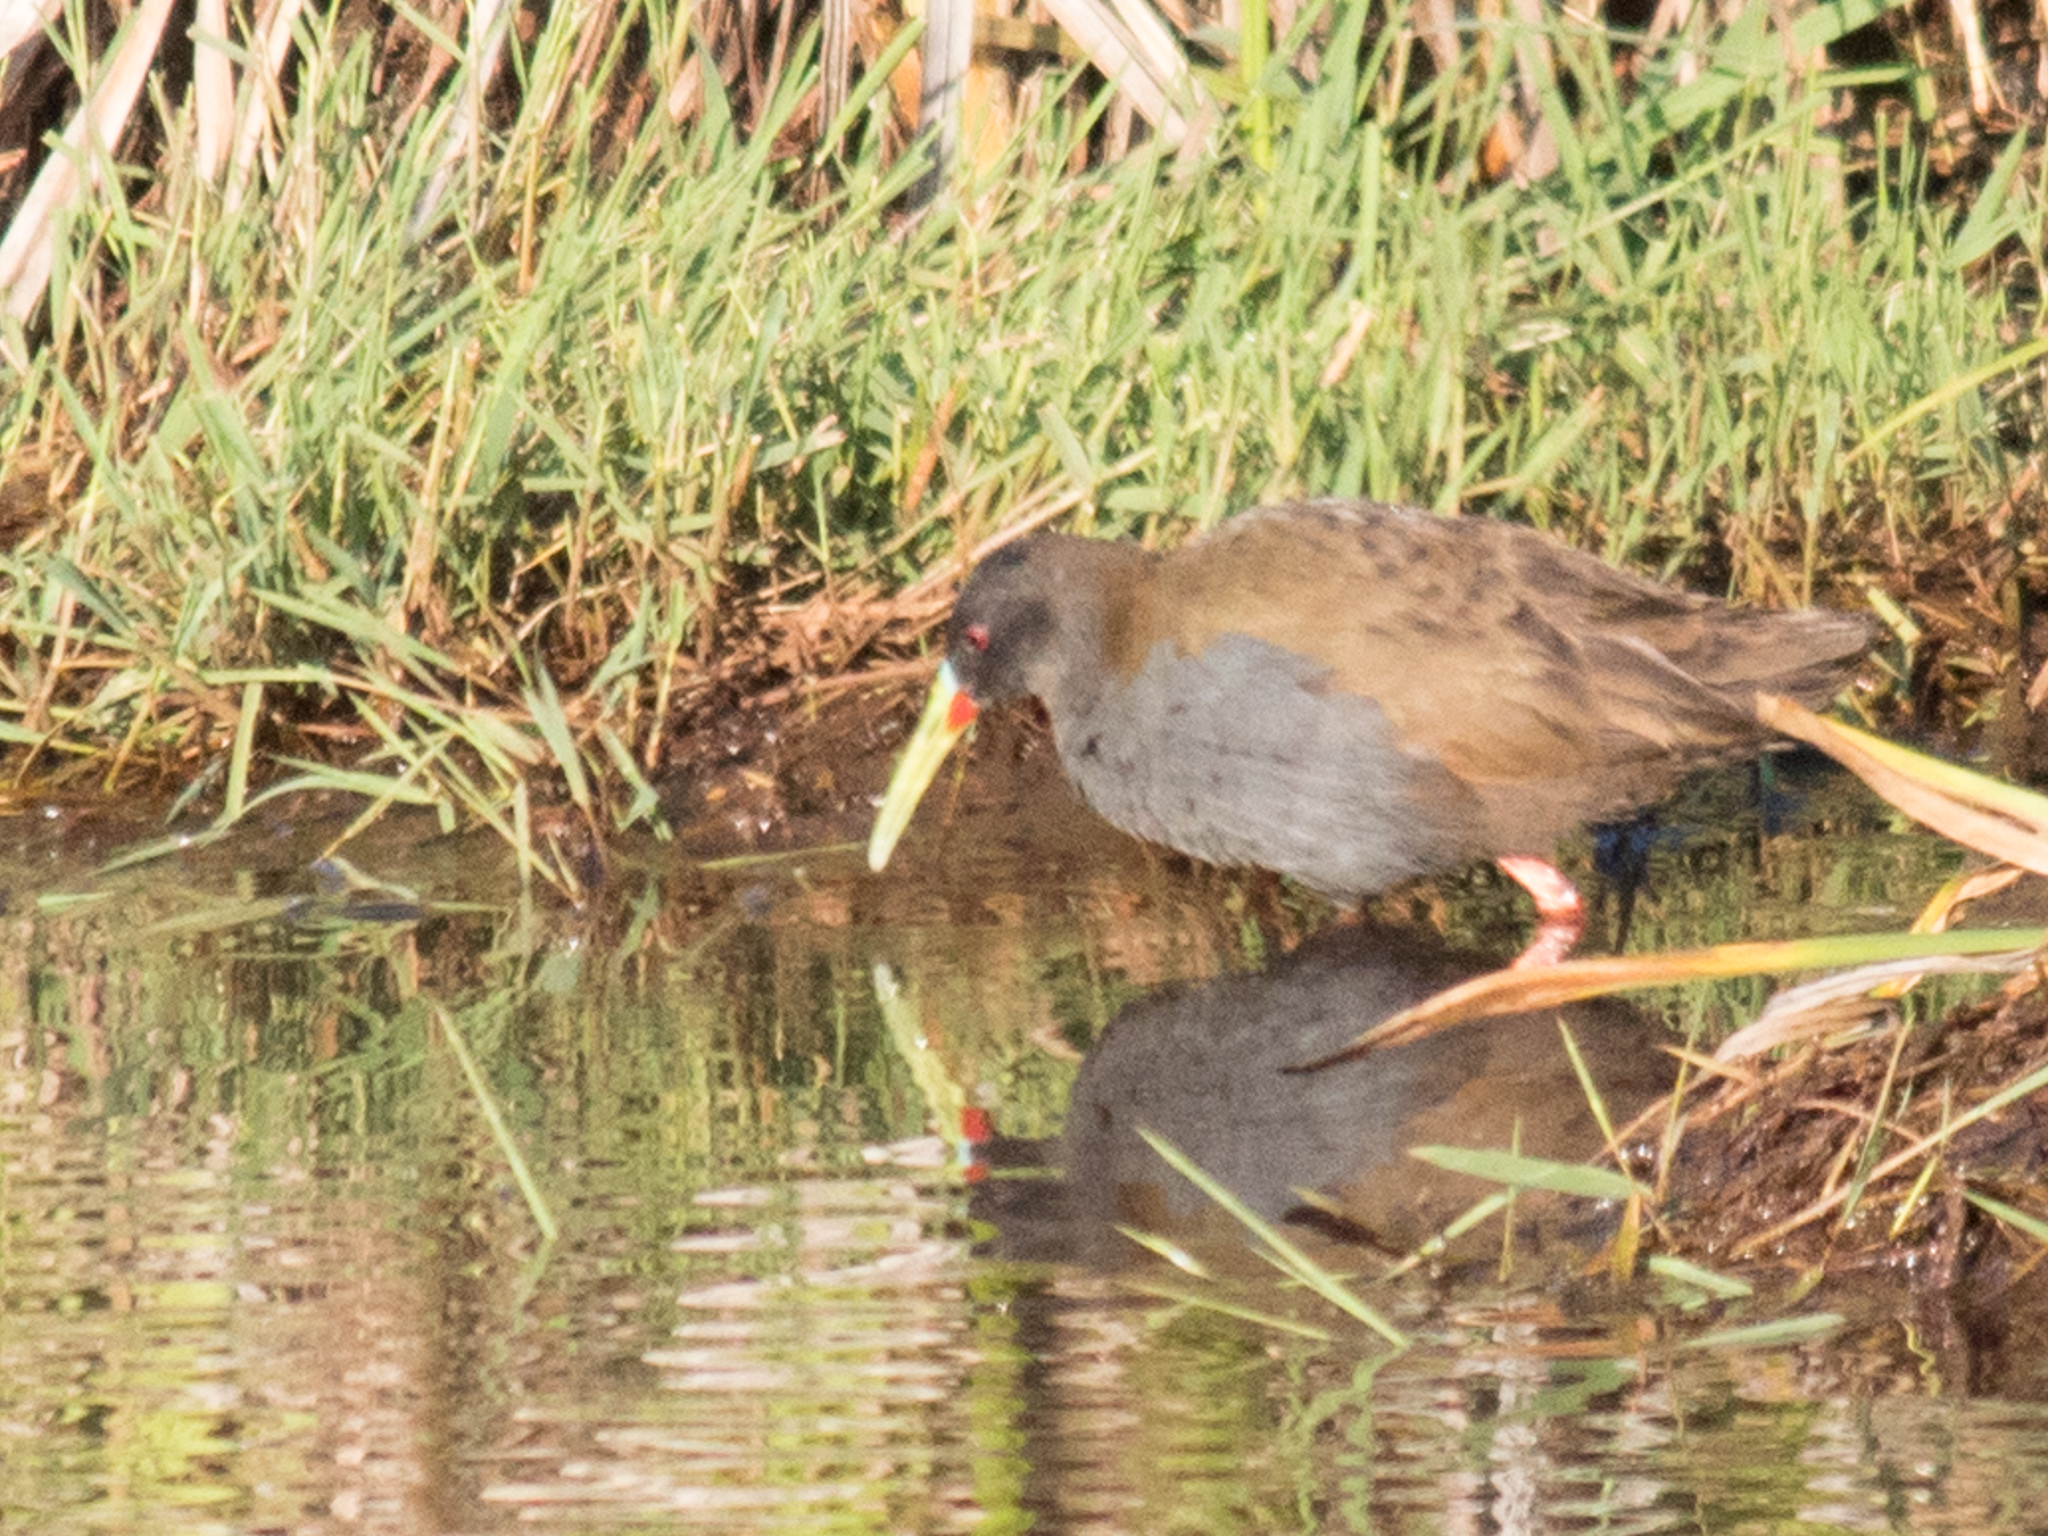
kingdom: Animalia
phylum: Chordata
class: Aves
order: Gruiformes
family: Rallidae
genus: Pardirallus
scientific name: Pardirallus sanguinolentus
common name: Plumbeous rail
